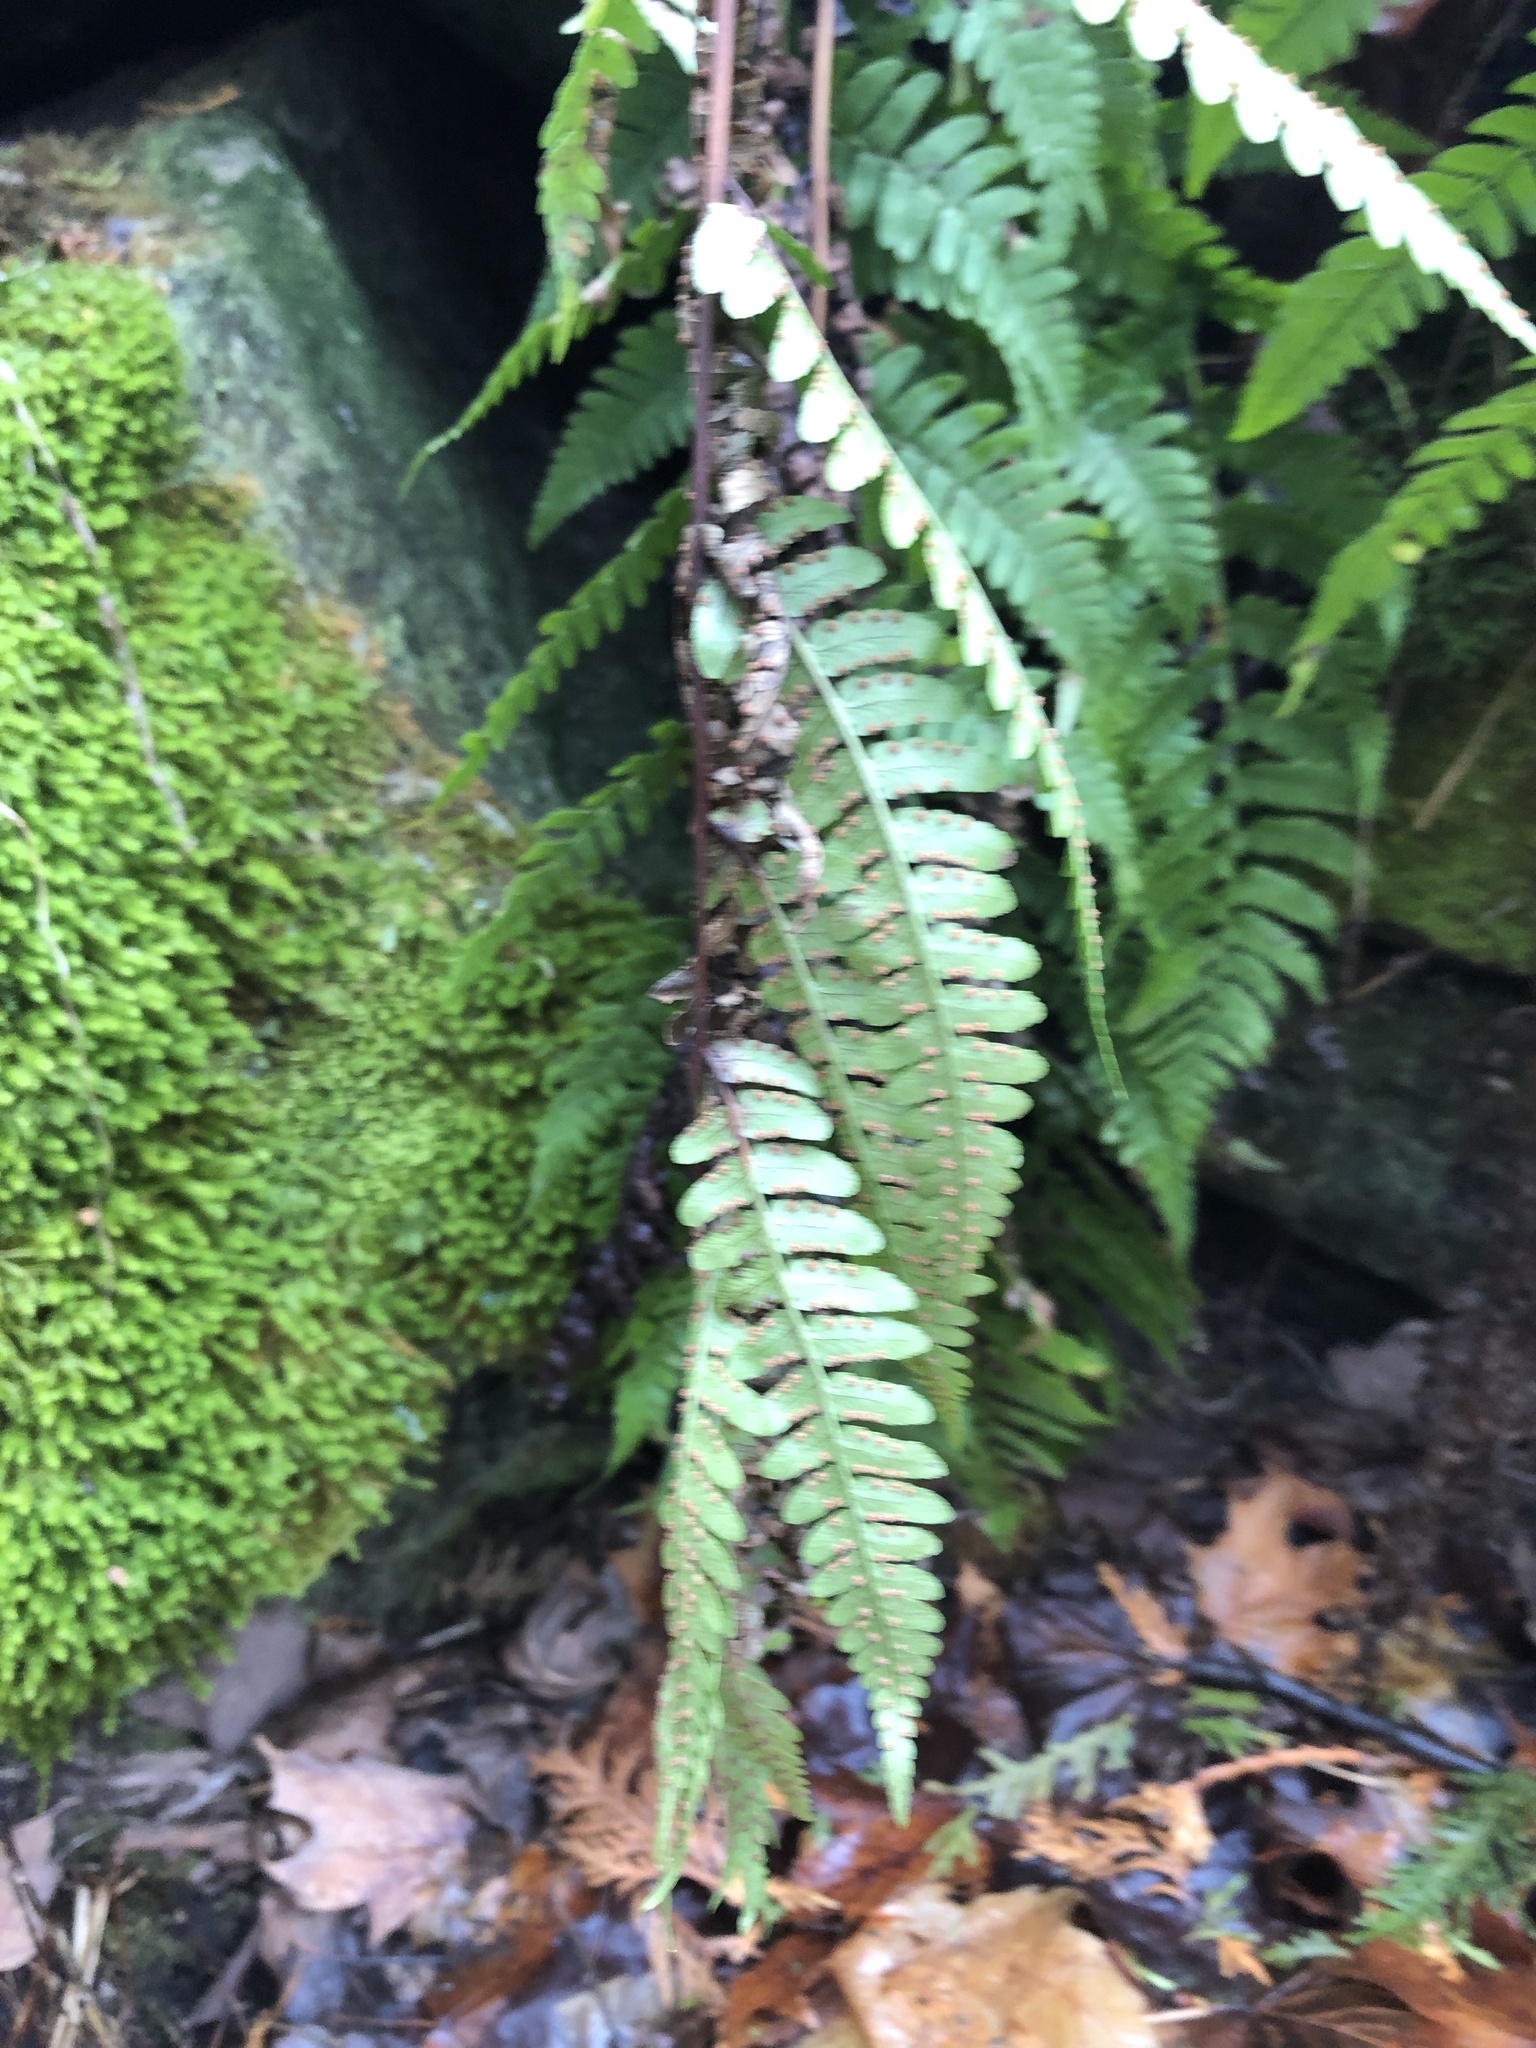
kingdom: Plantae
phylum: Tracheophyta
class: Polypodiopsida
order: Polypodiales
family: Dryopteridaceae
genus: Dryopteris
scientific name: Dryopteris marginalis
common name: Marginal wood fern
